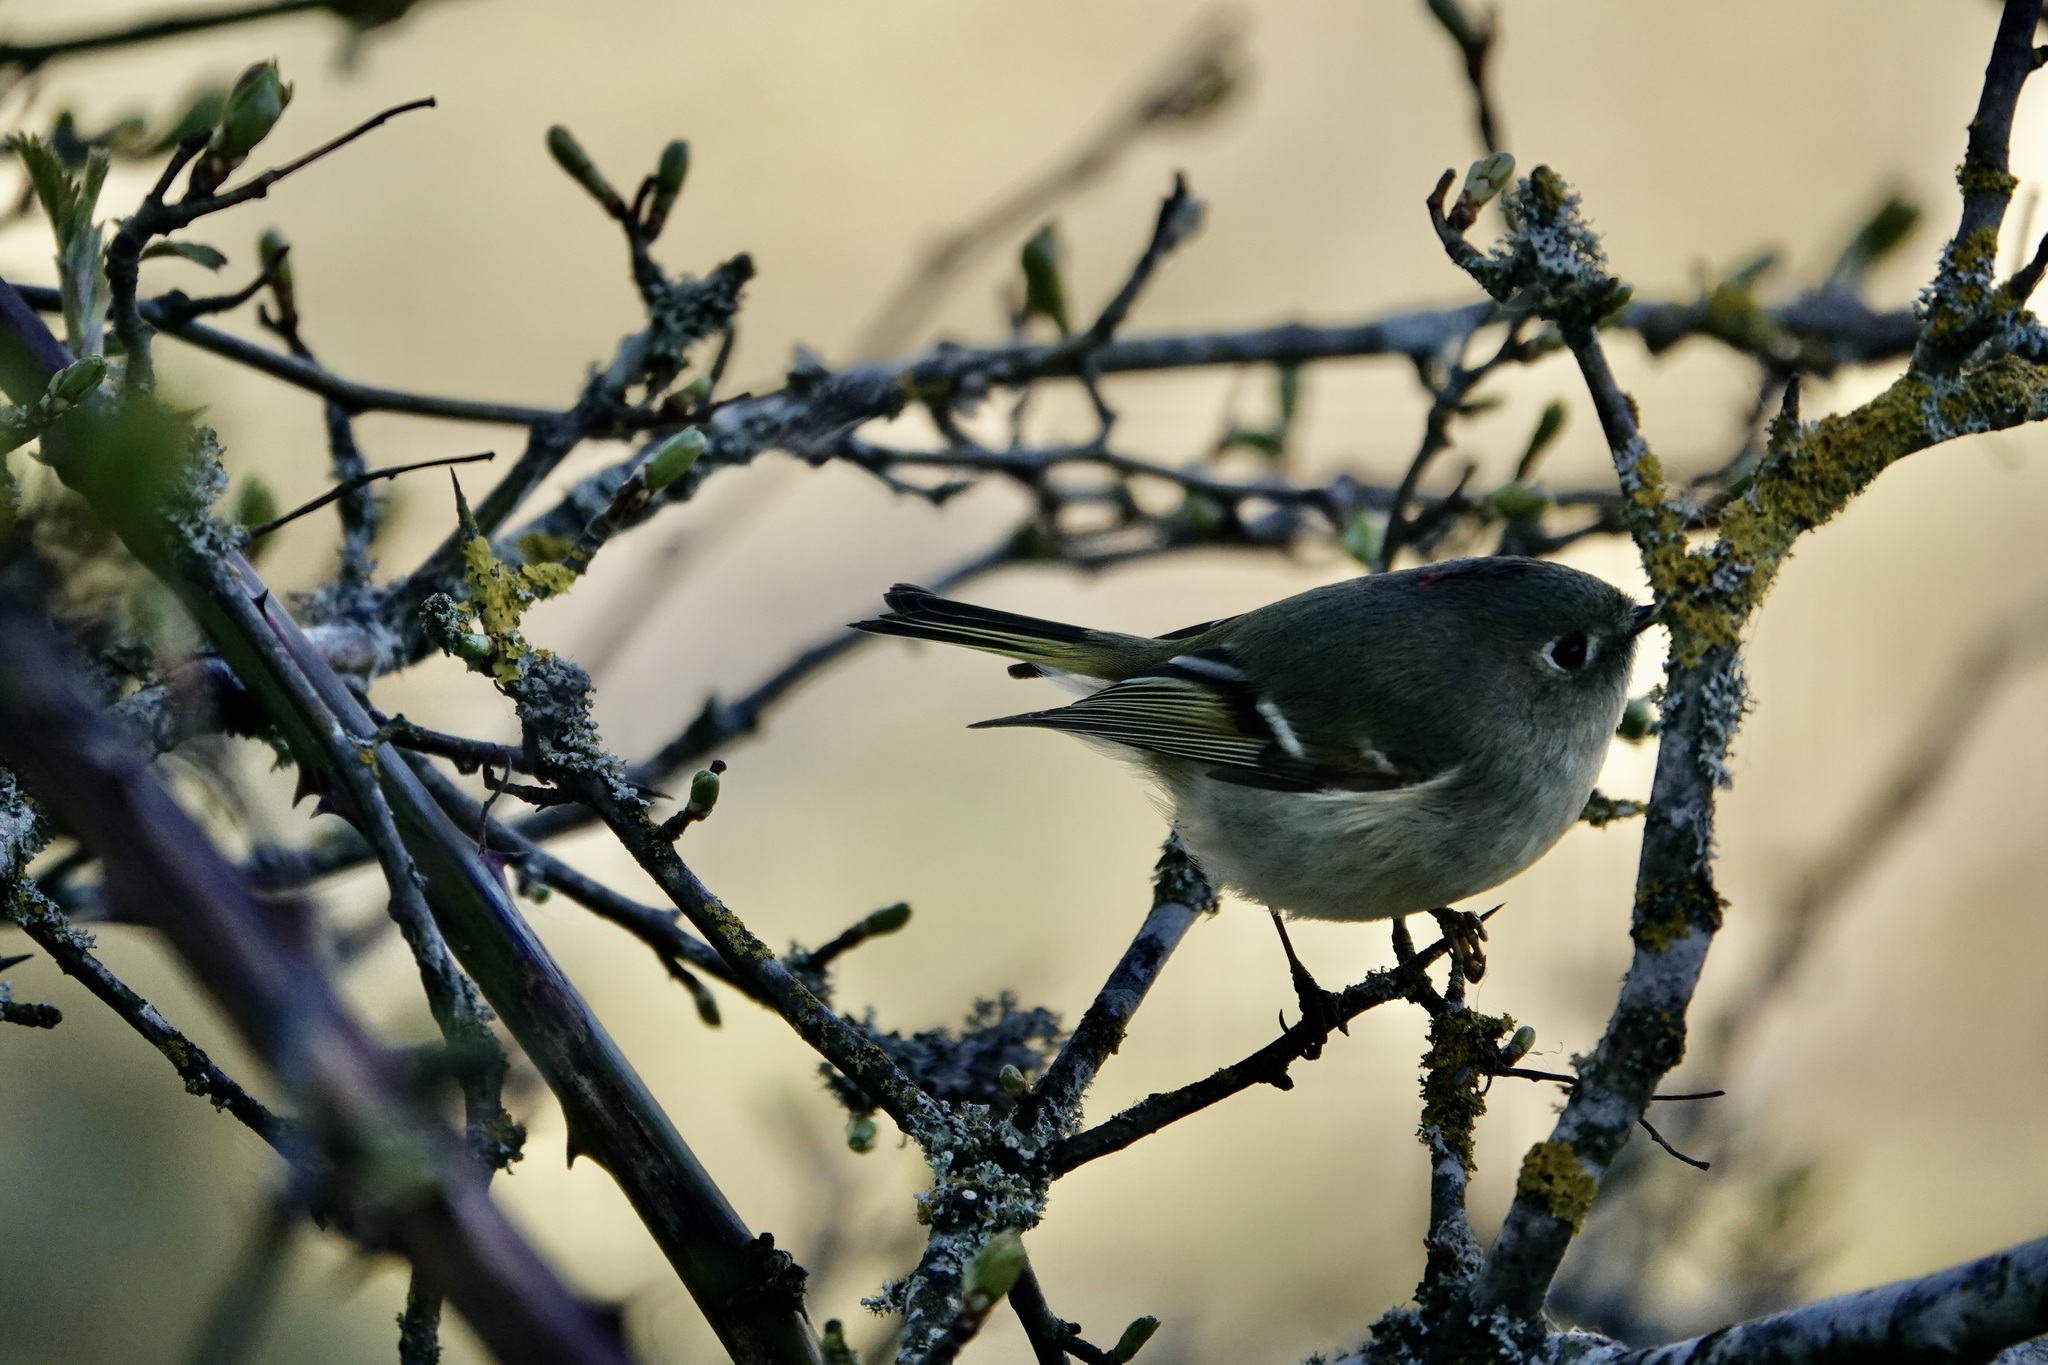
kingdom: Animalia
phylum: Chordata
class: Aves
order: Passeriformes
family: Regulidae
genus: Regulus
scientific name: Regulus calendula
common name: Ruby-crowned kinglet
